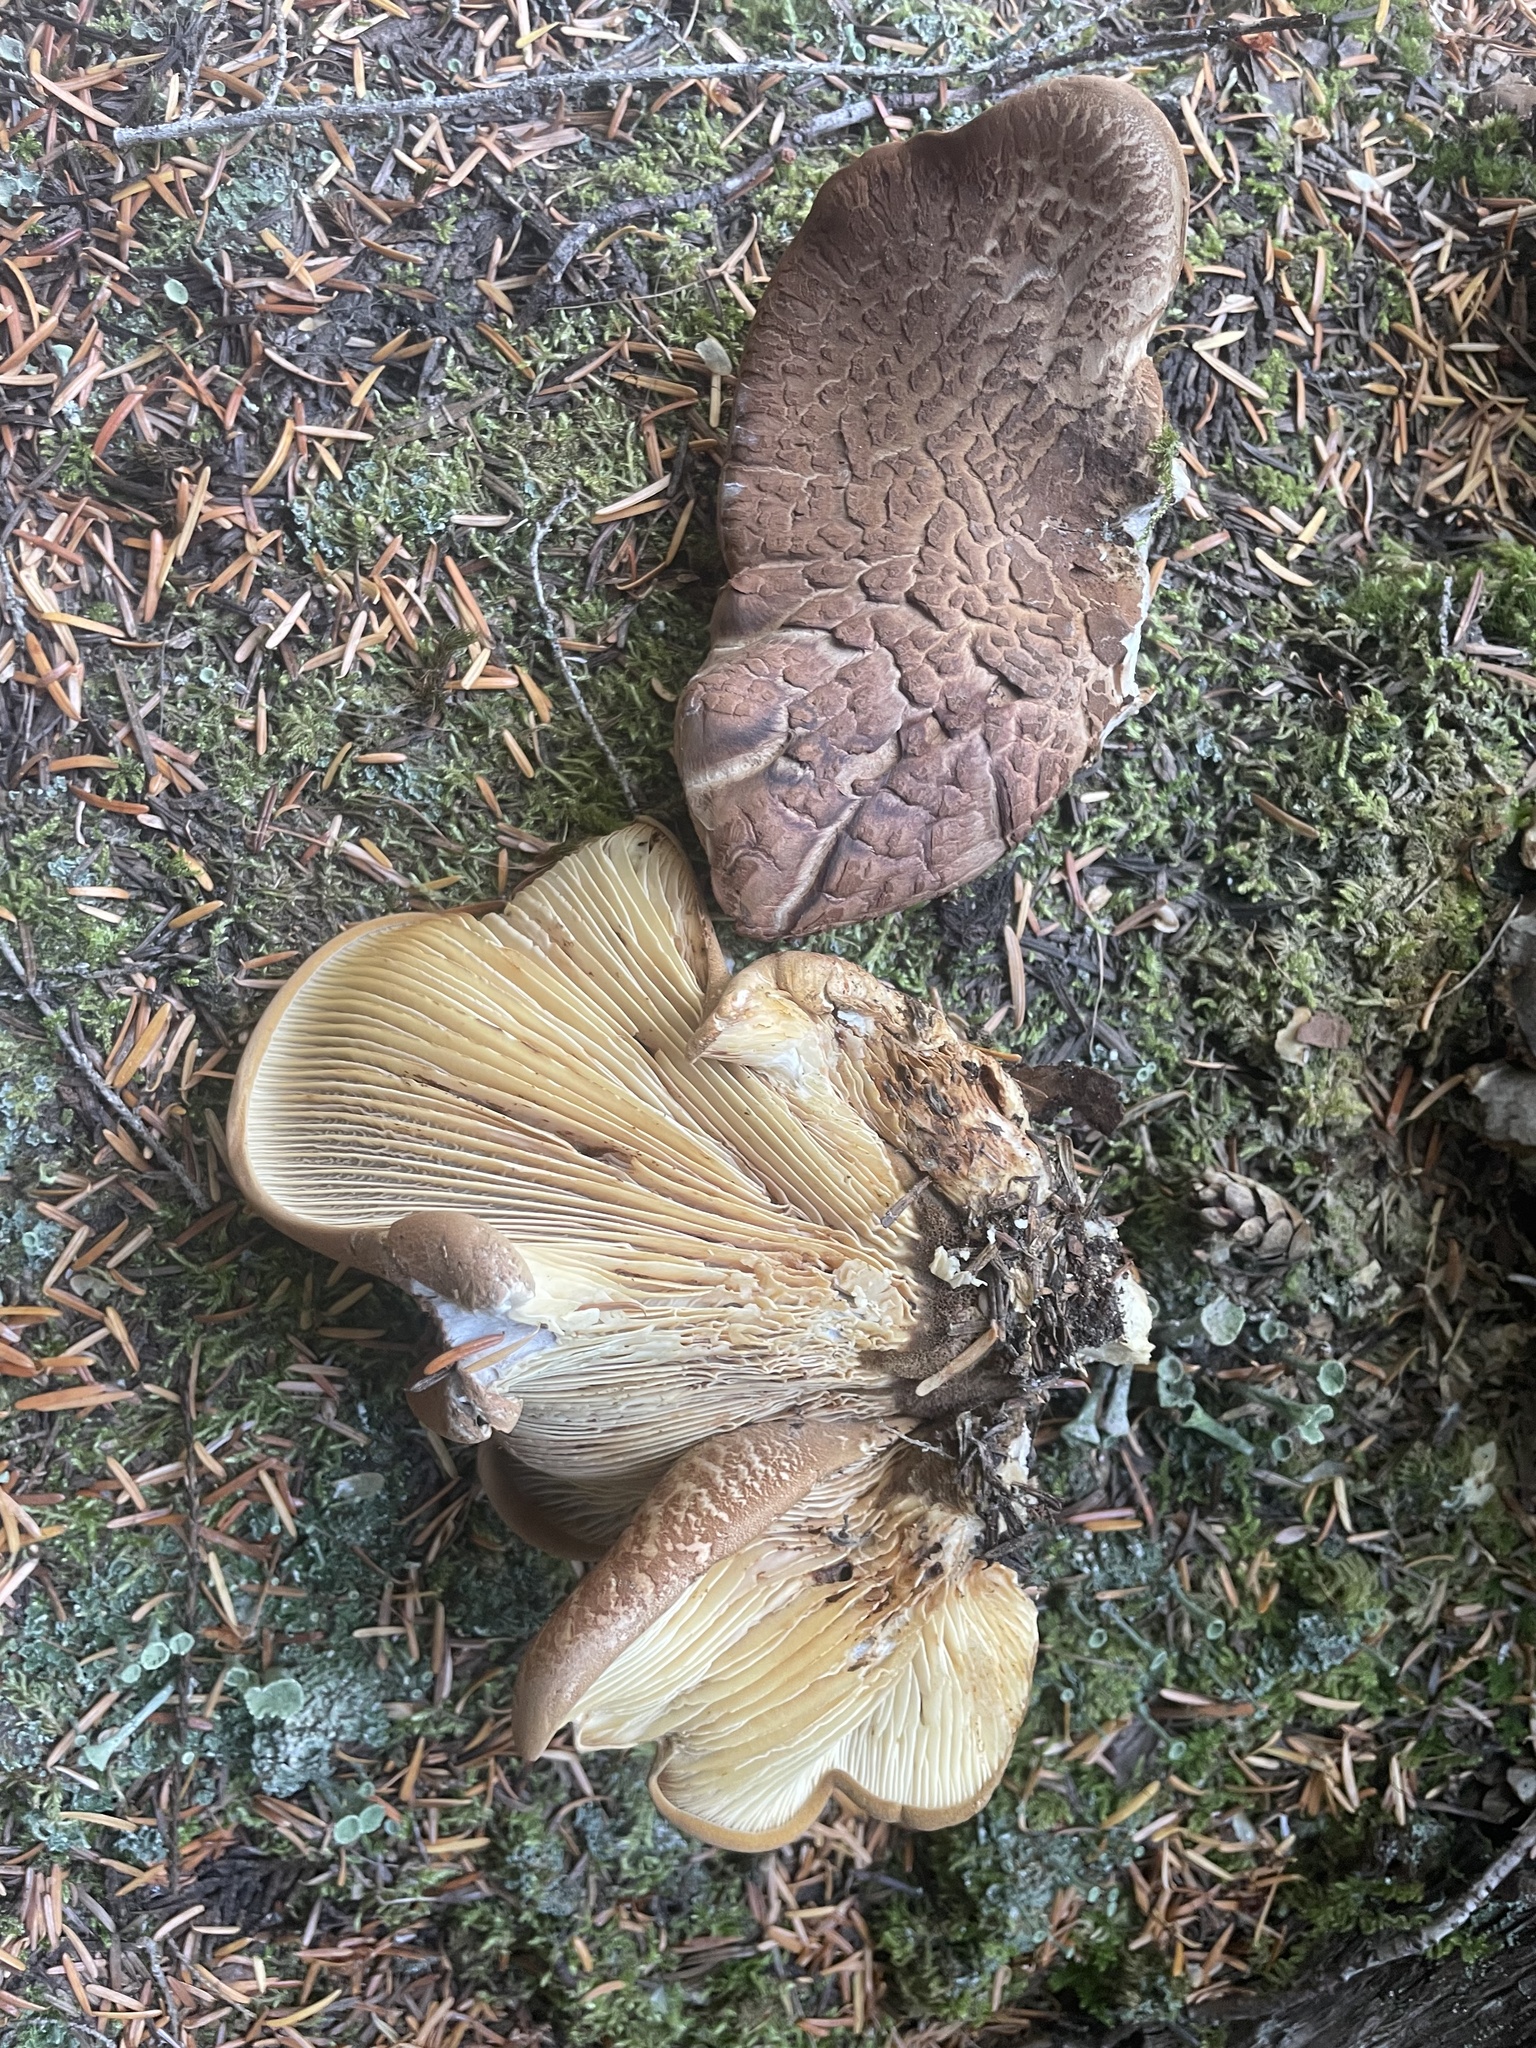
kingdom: Fungi
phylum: Basidiomycota
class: Agaricomycetes
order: Boletales
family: Tapinellaceae
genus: Tapinella
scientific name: Tapinella atrotomentosa
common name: Velvet rollrim
